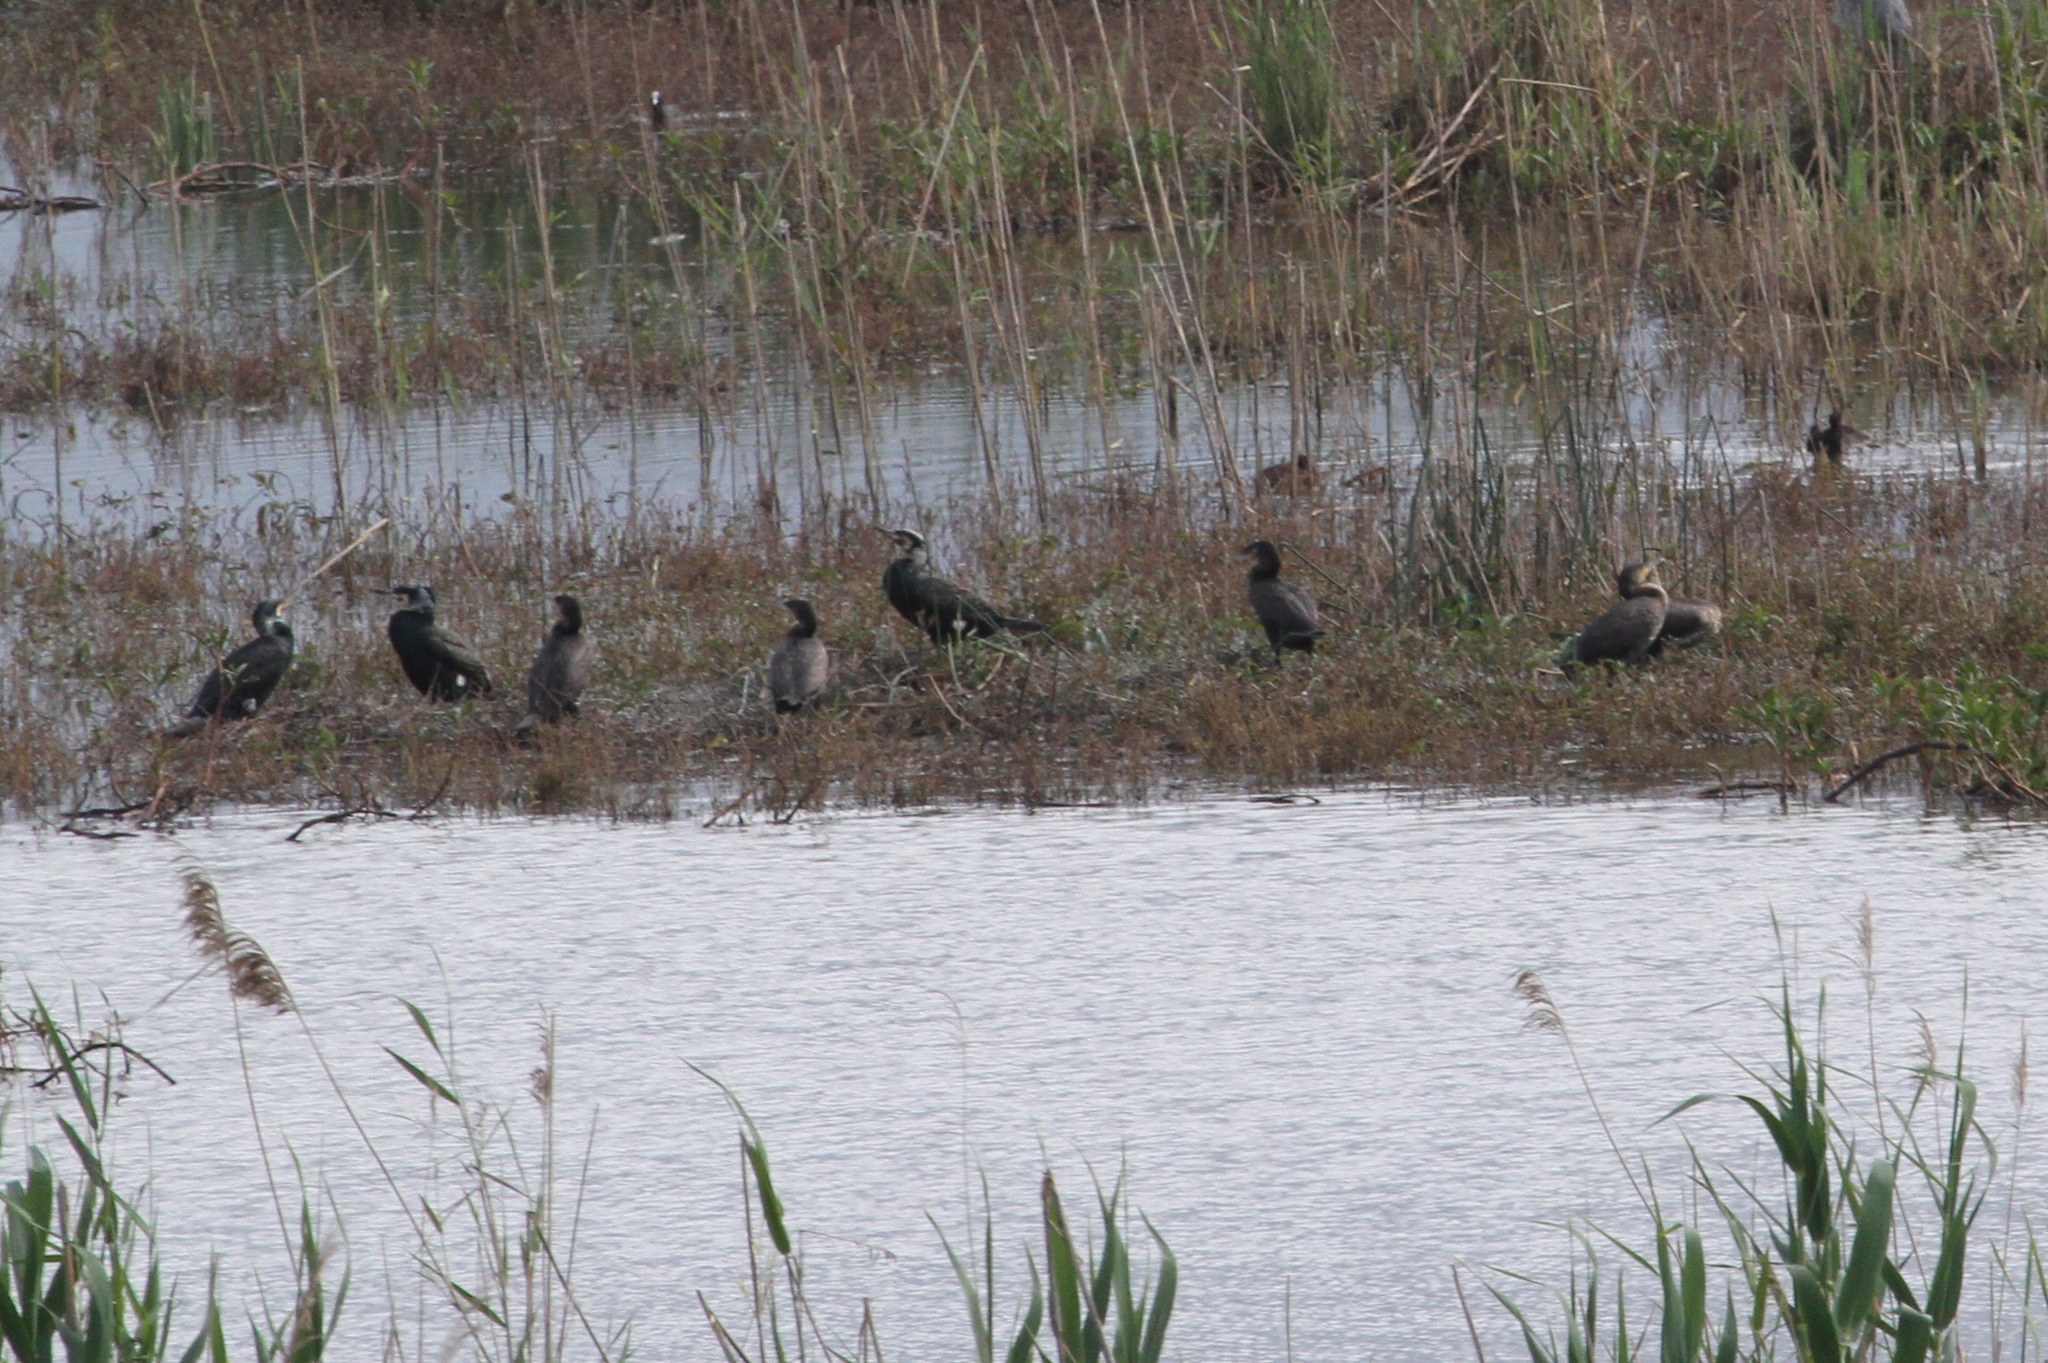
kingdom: Animalia
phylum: Chordata
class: Aves
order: Suliformes
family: Phalacrocoracidae
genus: Phalacrocorax
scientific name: Phalacrocorax carbo
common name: Great cormorant
